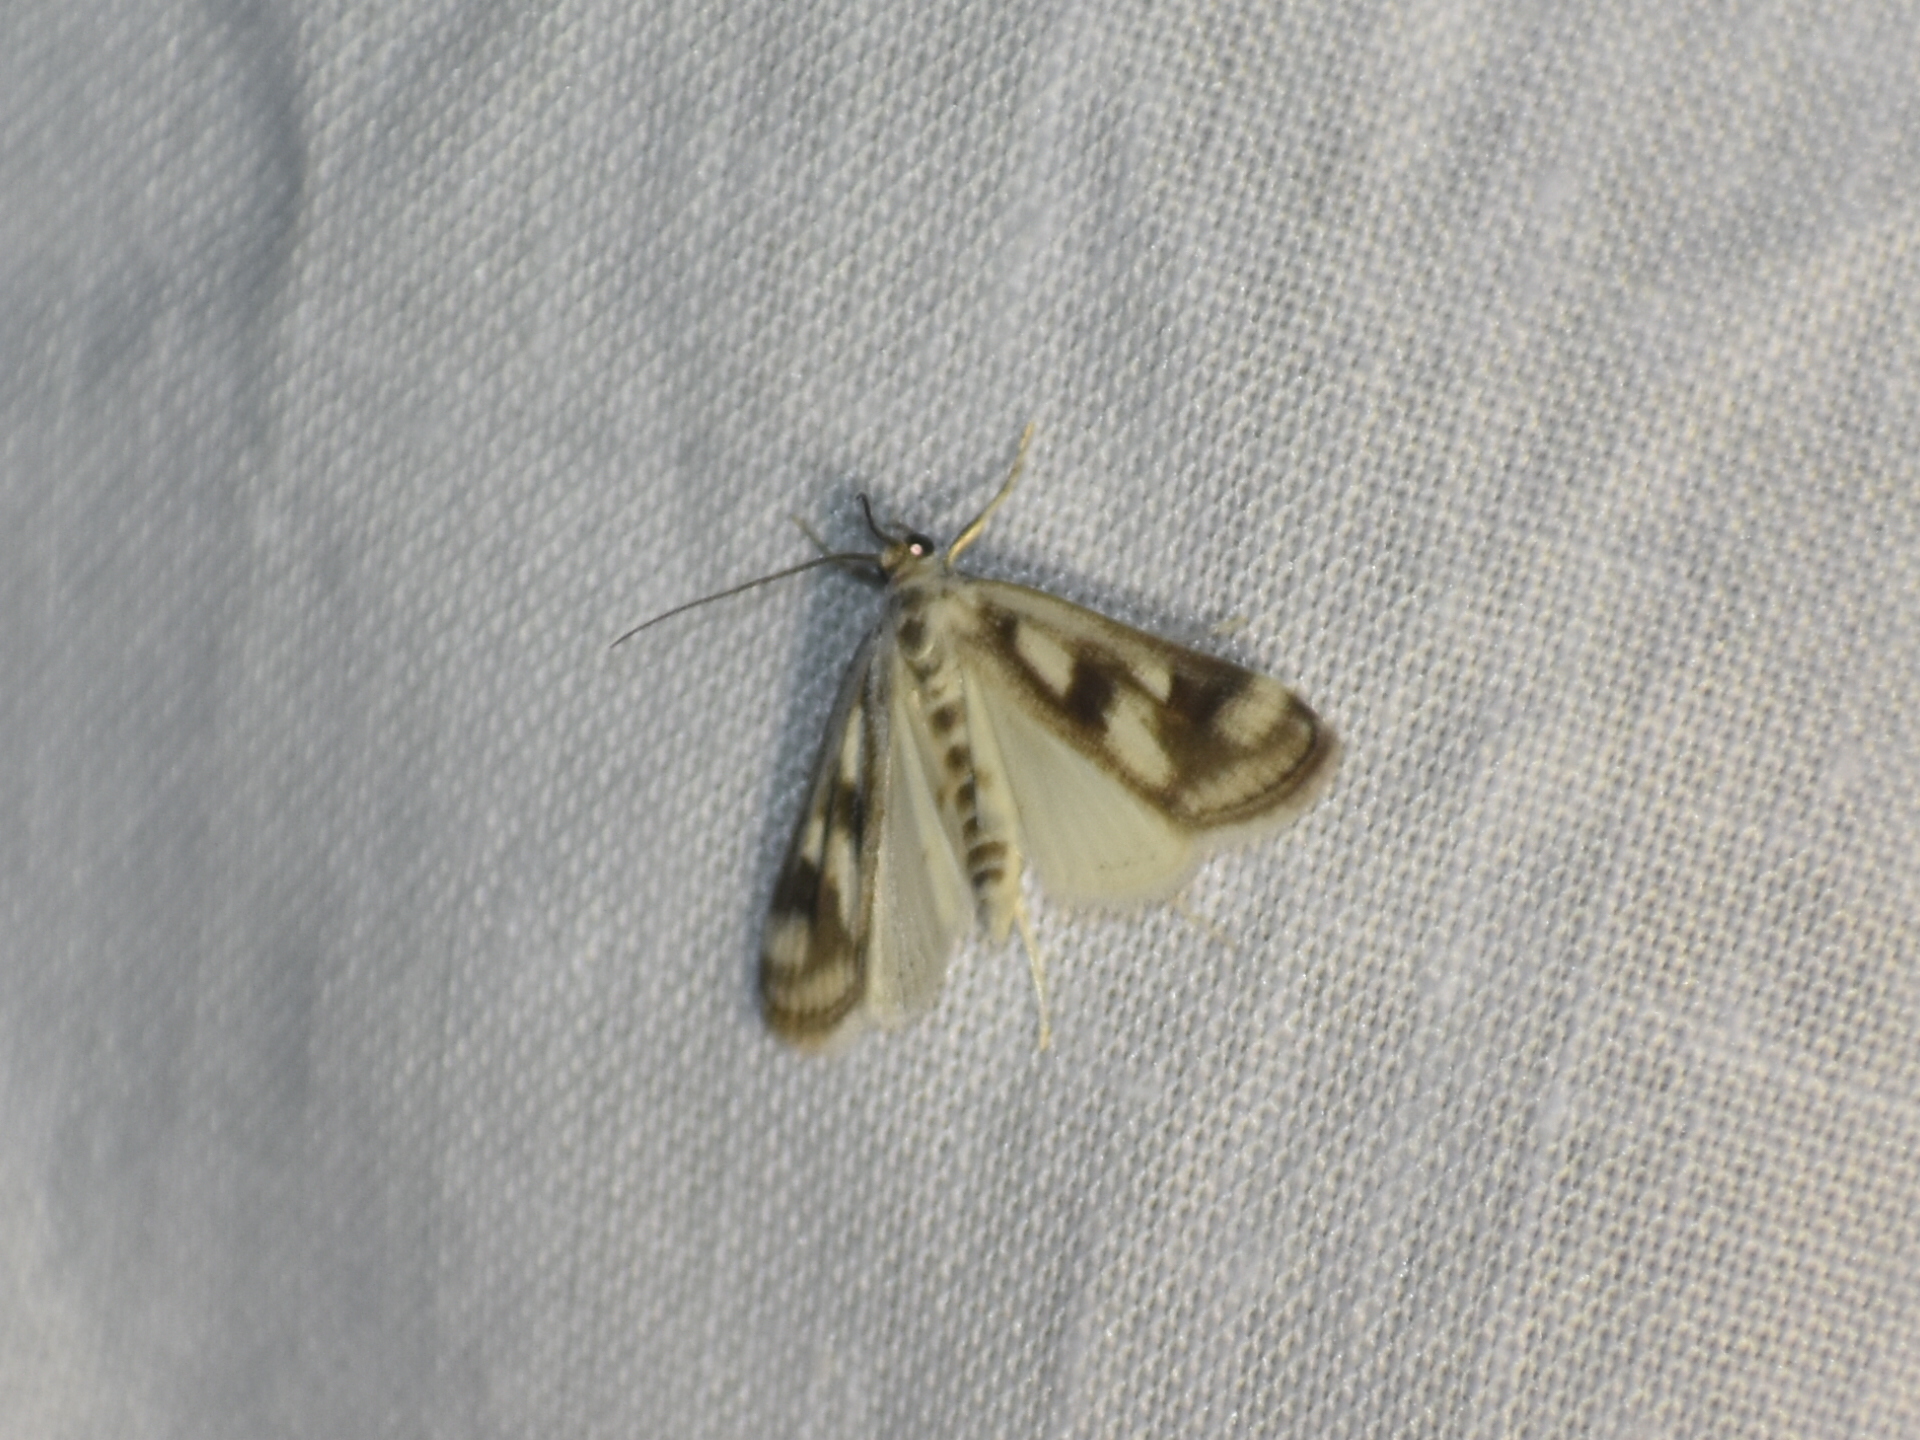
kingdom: Animalia
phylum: Arthropoda
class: Insecta
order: Lepidoptera
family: Crambidae
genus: Parapoynx
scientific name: Parapoynx maculalis
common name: Polymorphic pondweed moth
